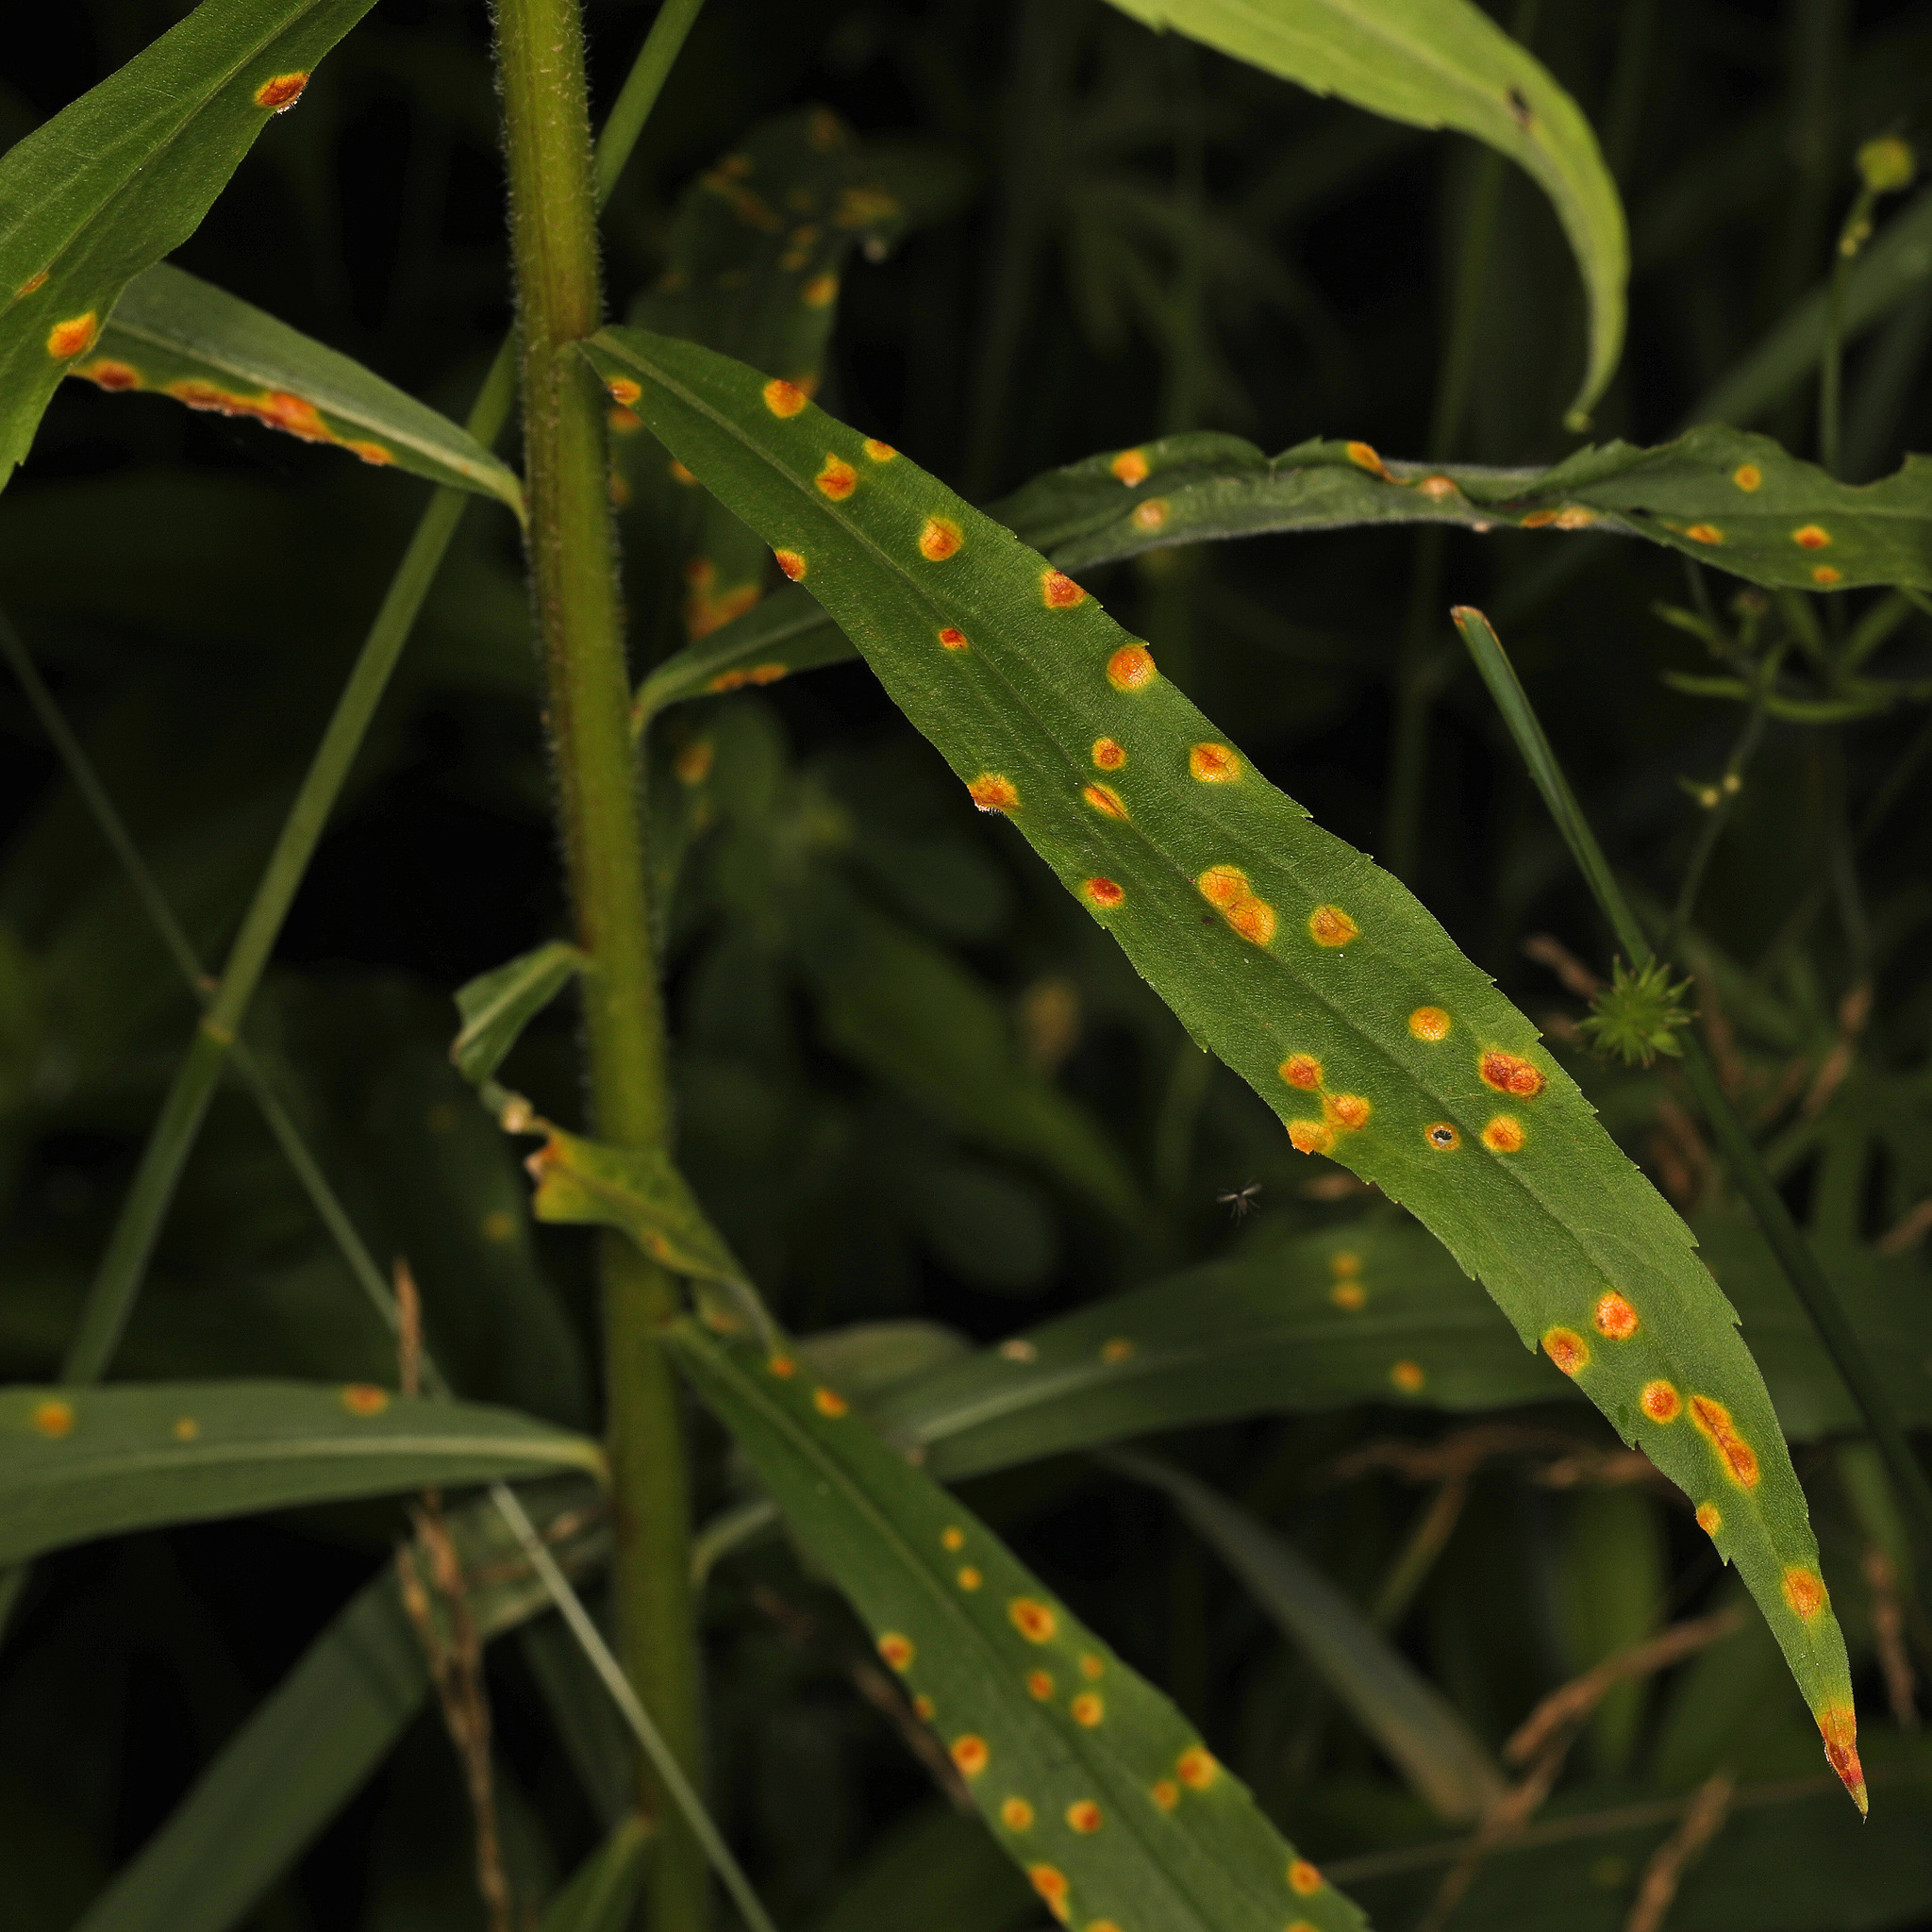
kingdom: Fungi
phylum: Basidiomycota
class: Pucciniomycetes
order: Pucciniales
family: Coleosporiaceae
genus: Coleosporium
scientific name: Coleosporium asterum
